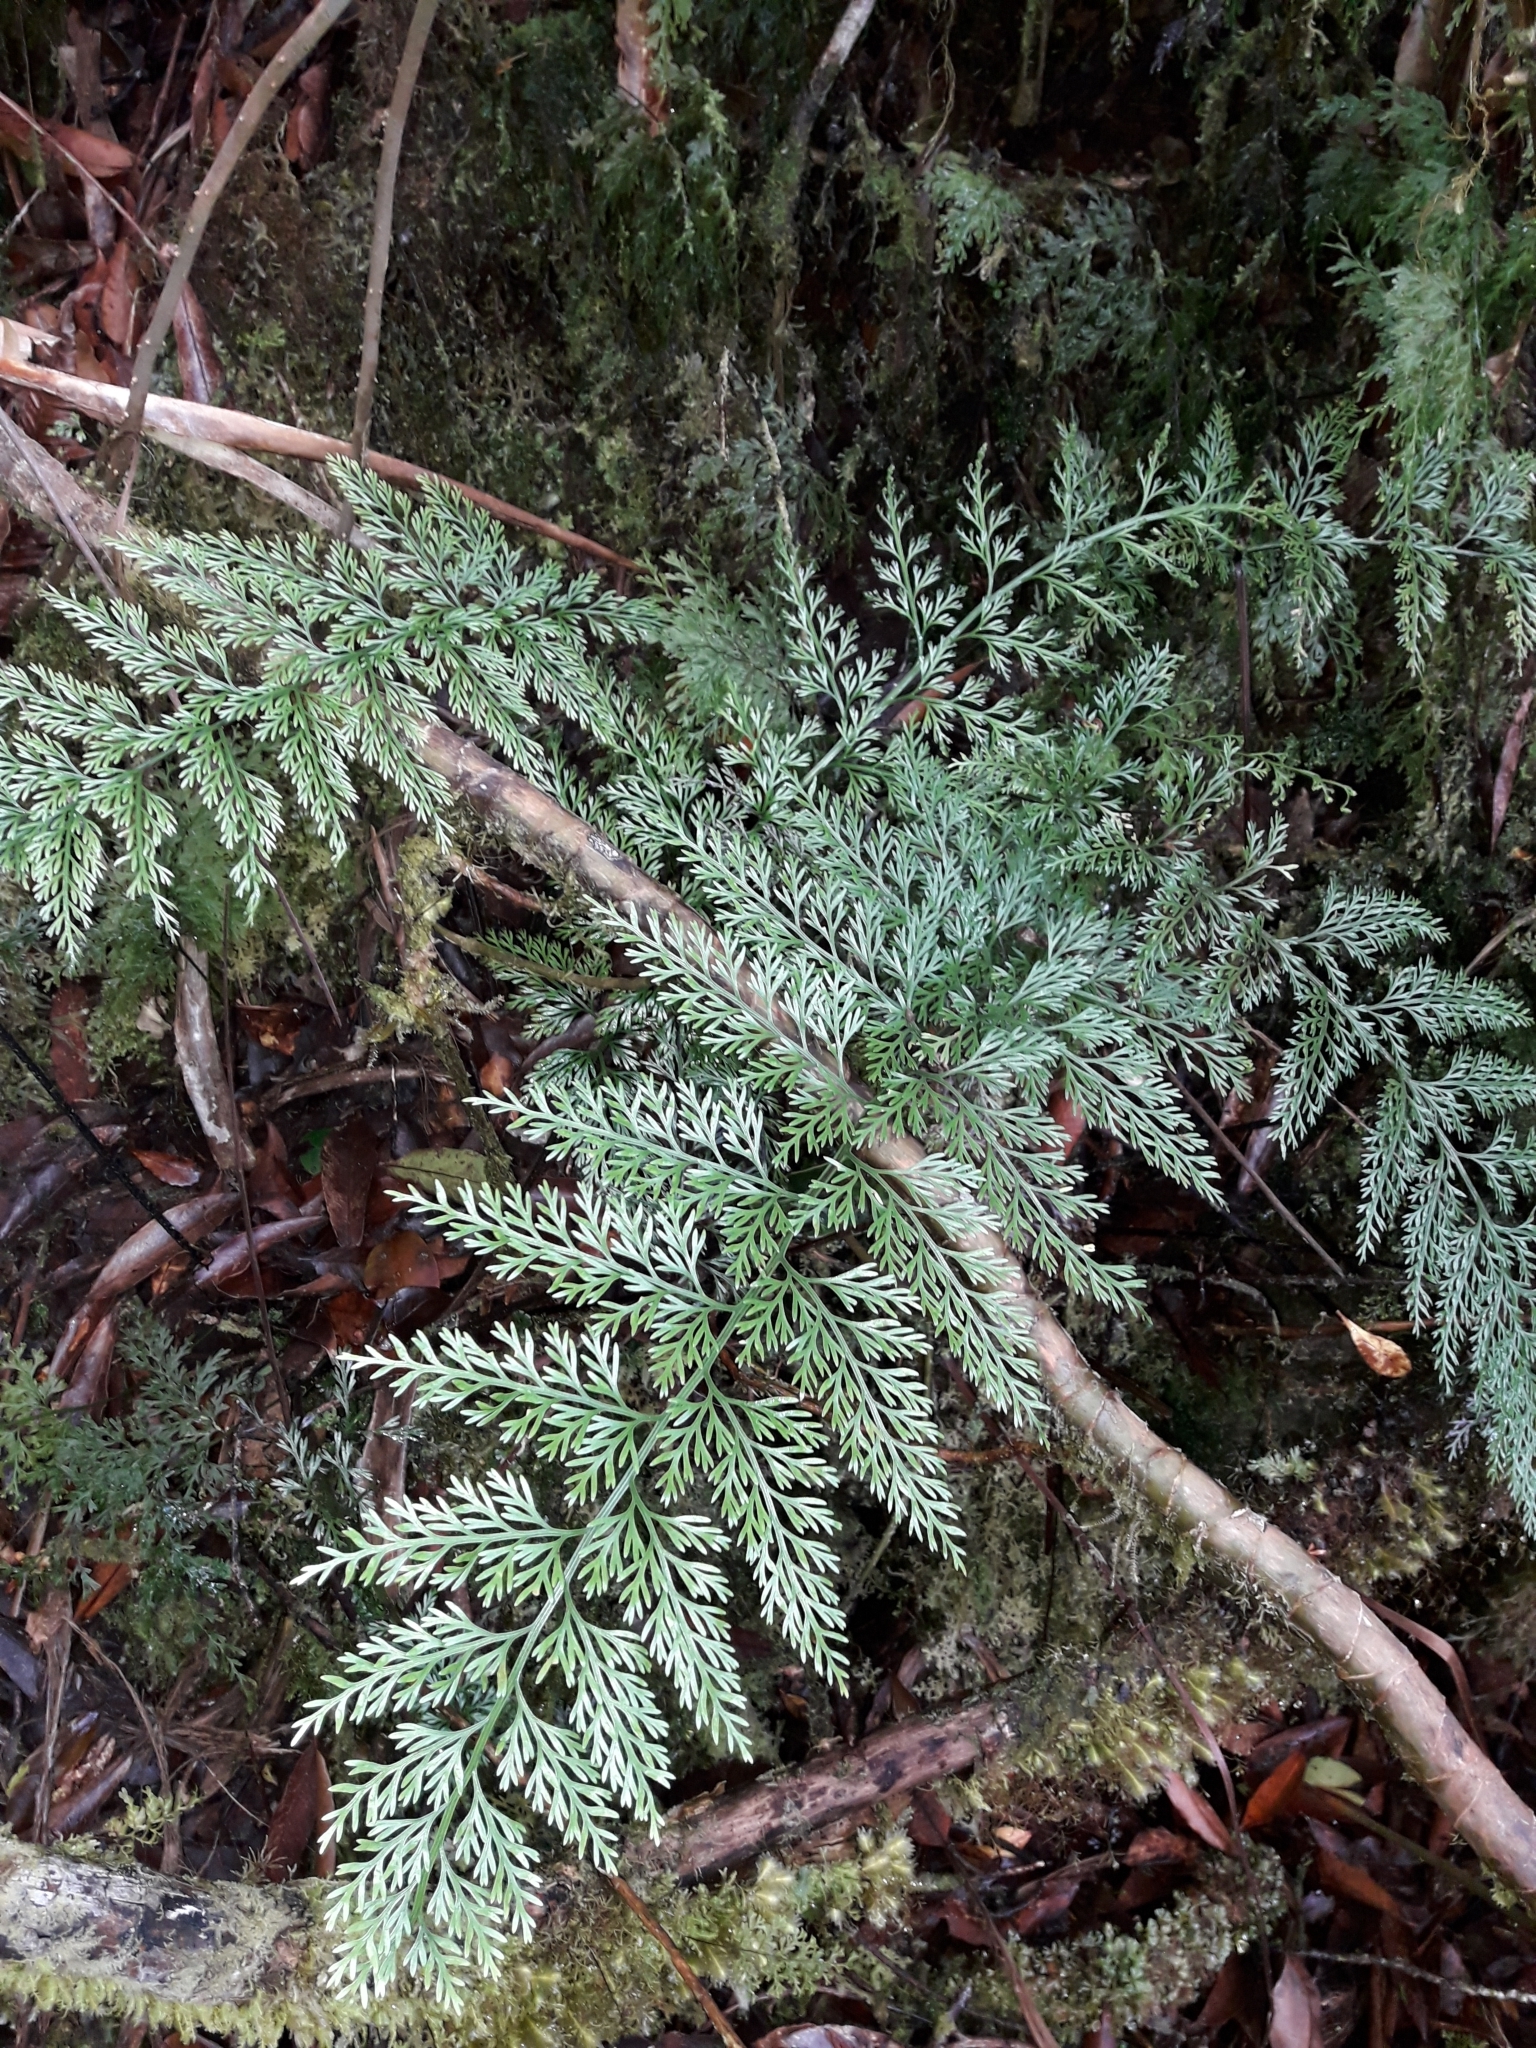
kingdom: Plantae
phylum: Tracheophyta
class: Polypodiopsida
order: Polypodiales
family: Aspleniaceae
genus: Asplenium
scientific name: Asplenium pseudobulbiferum
